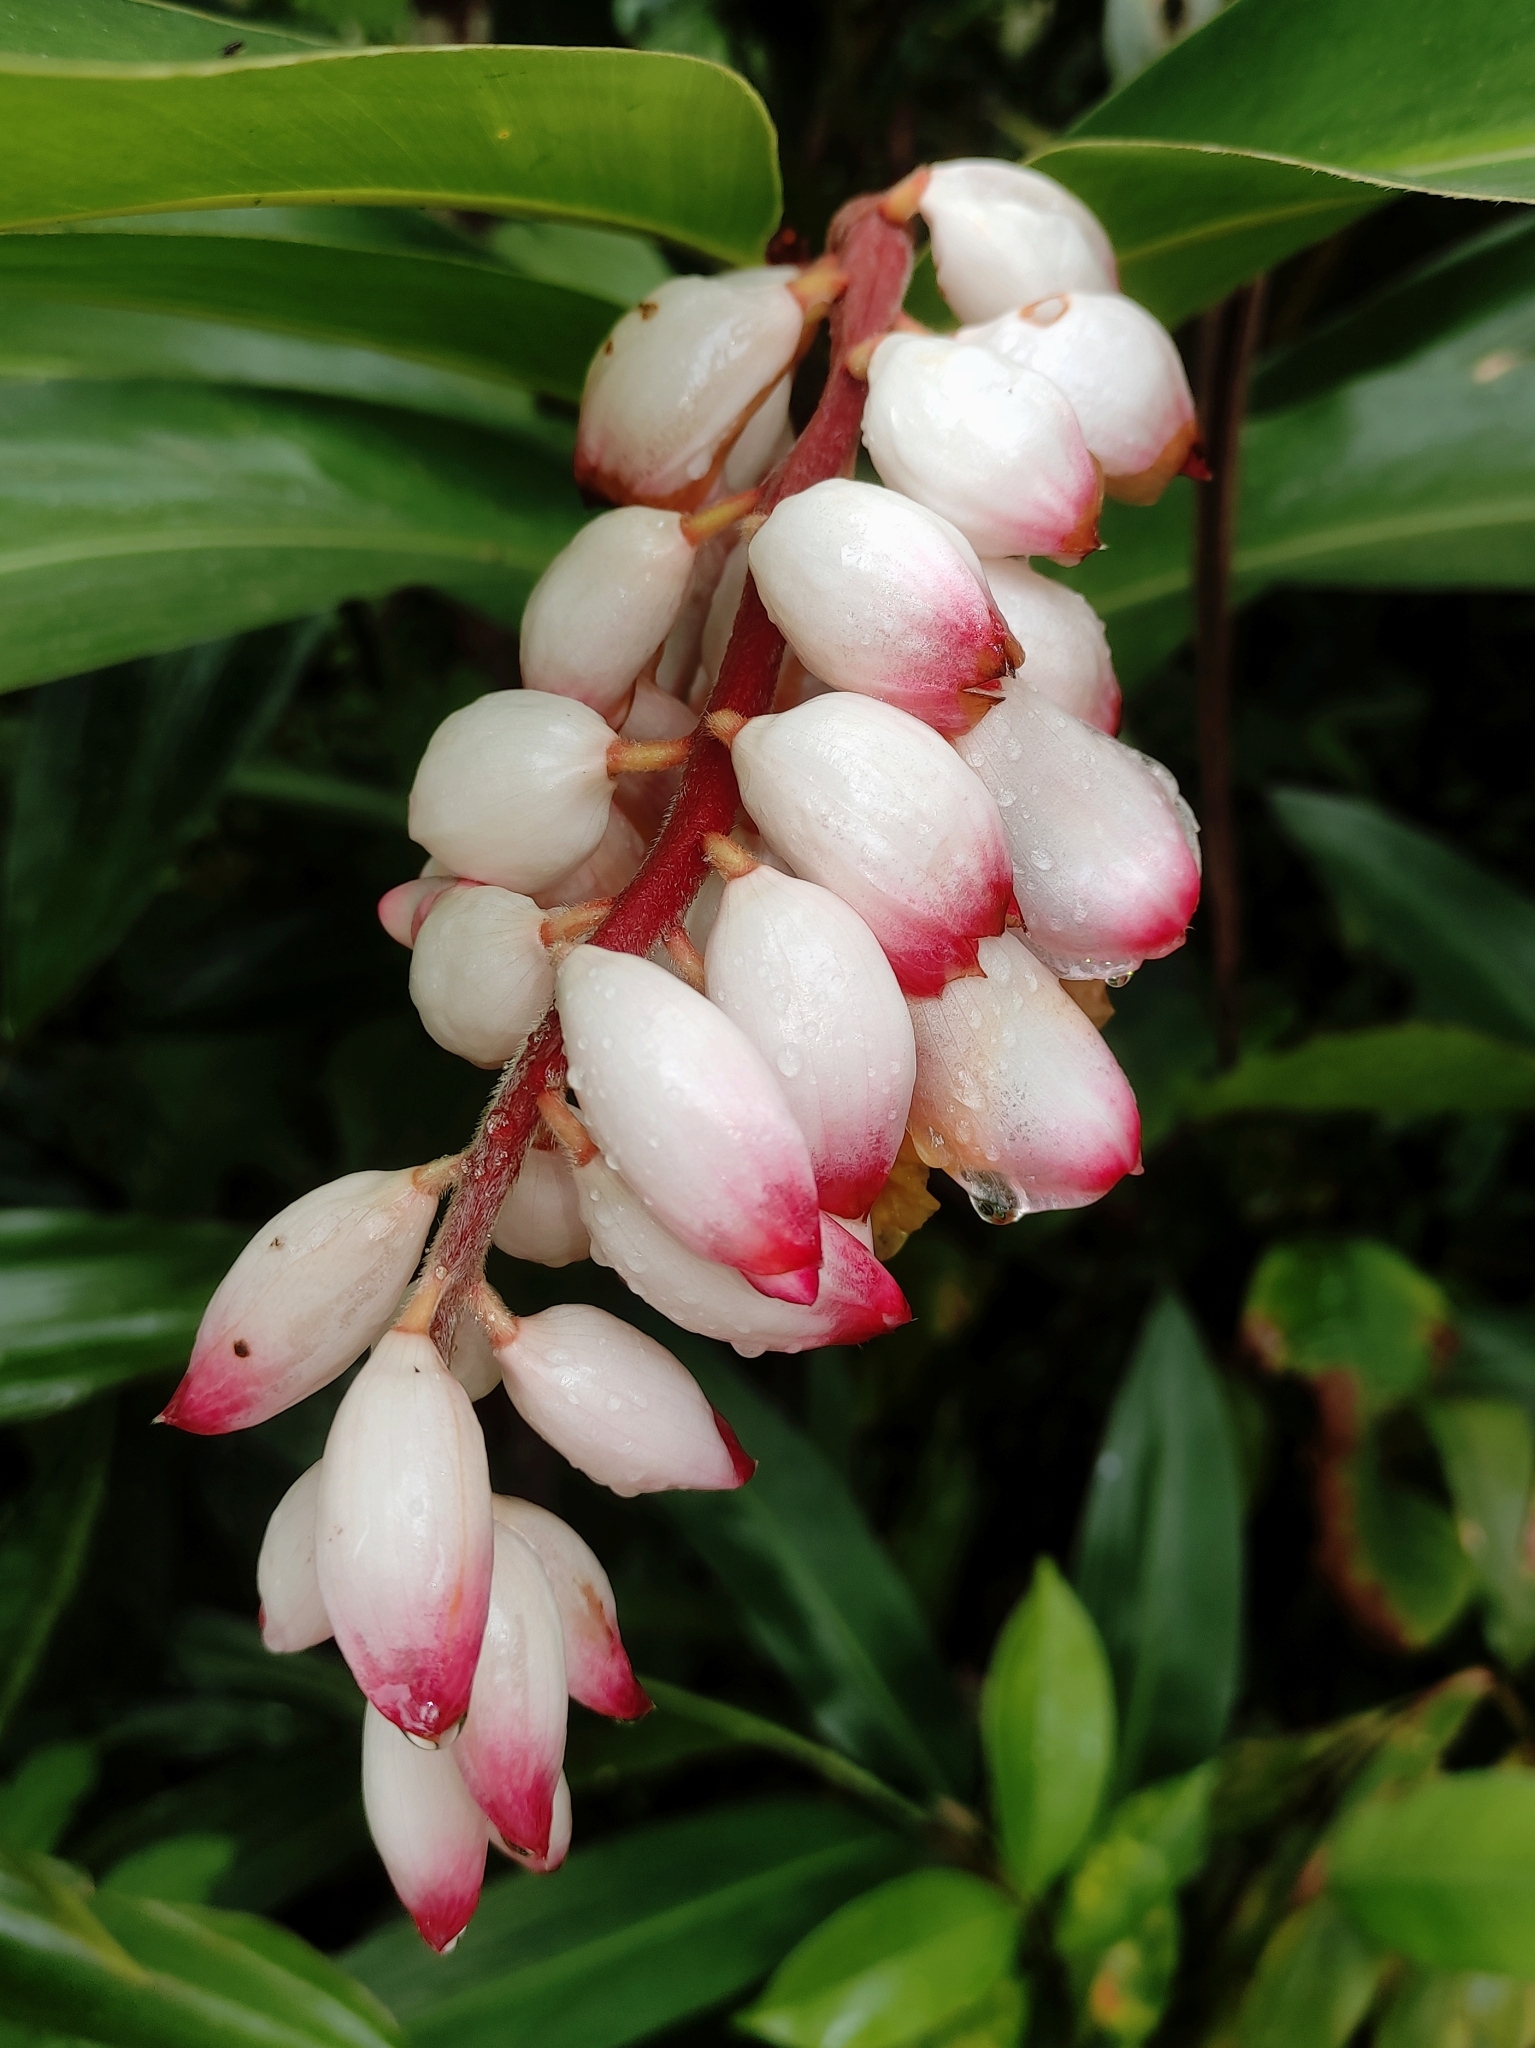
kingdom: Plantae
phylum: Tracheophyta
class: Liliopsida
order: Zingiberales
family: Zingiberaceae
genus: Alpinia
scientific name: Alpinia zerumbet
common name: Shellplant
